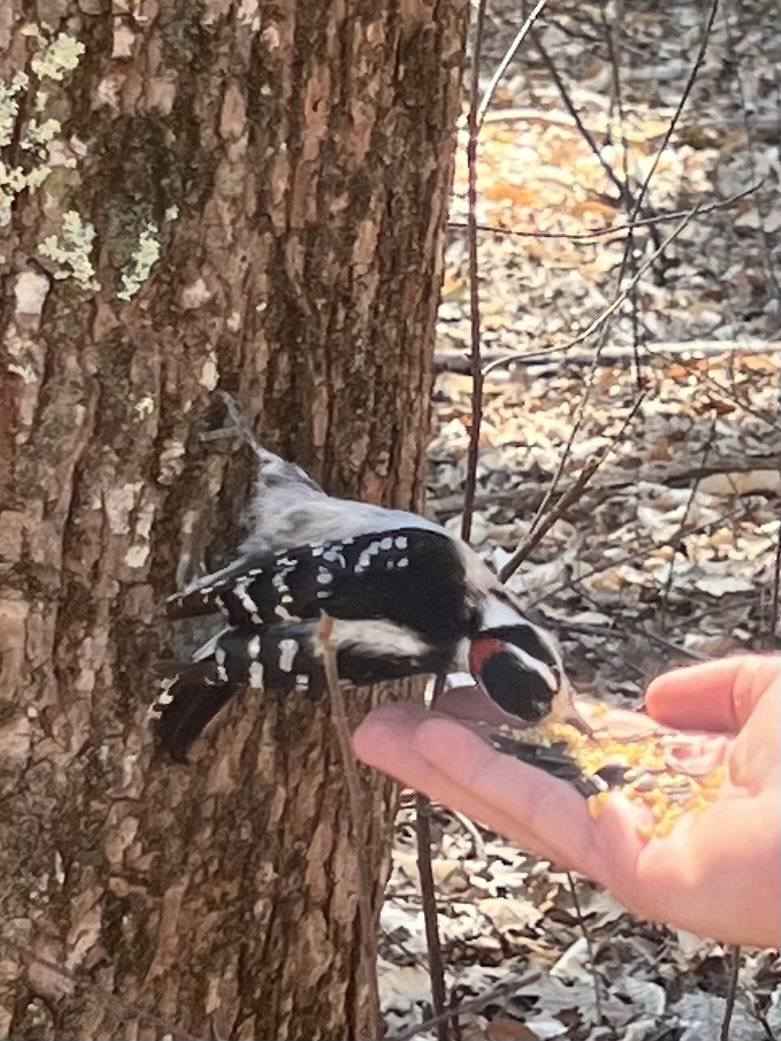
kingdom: Animalia
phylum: Chordata
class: Aves
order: Piciformes
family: Picidae
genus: Dryobates
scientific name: Dryobates pubescens
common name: Downy woodpecker
